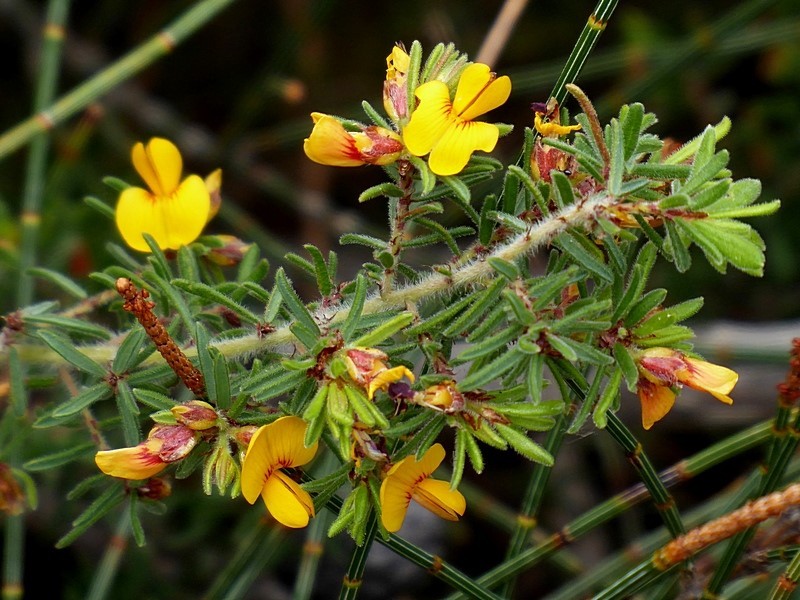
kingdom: Plantae
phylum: Tracheophyta
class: Magnoliopsida
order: Fabales
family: Fabaceae
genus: Pultenaea
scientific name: Pultenaea hispidula
